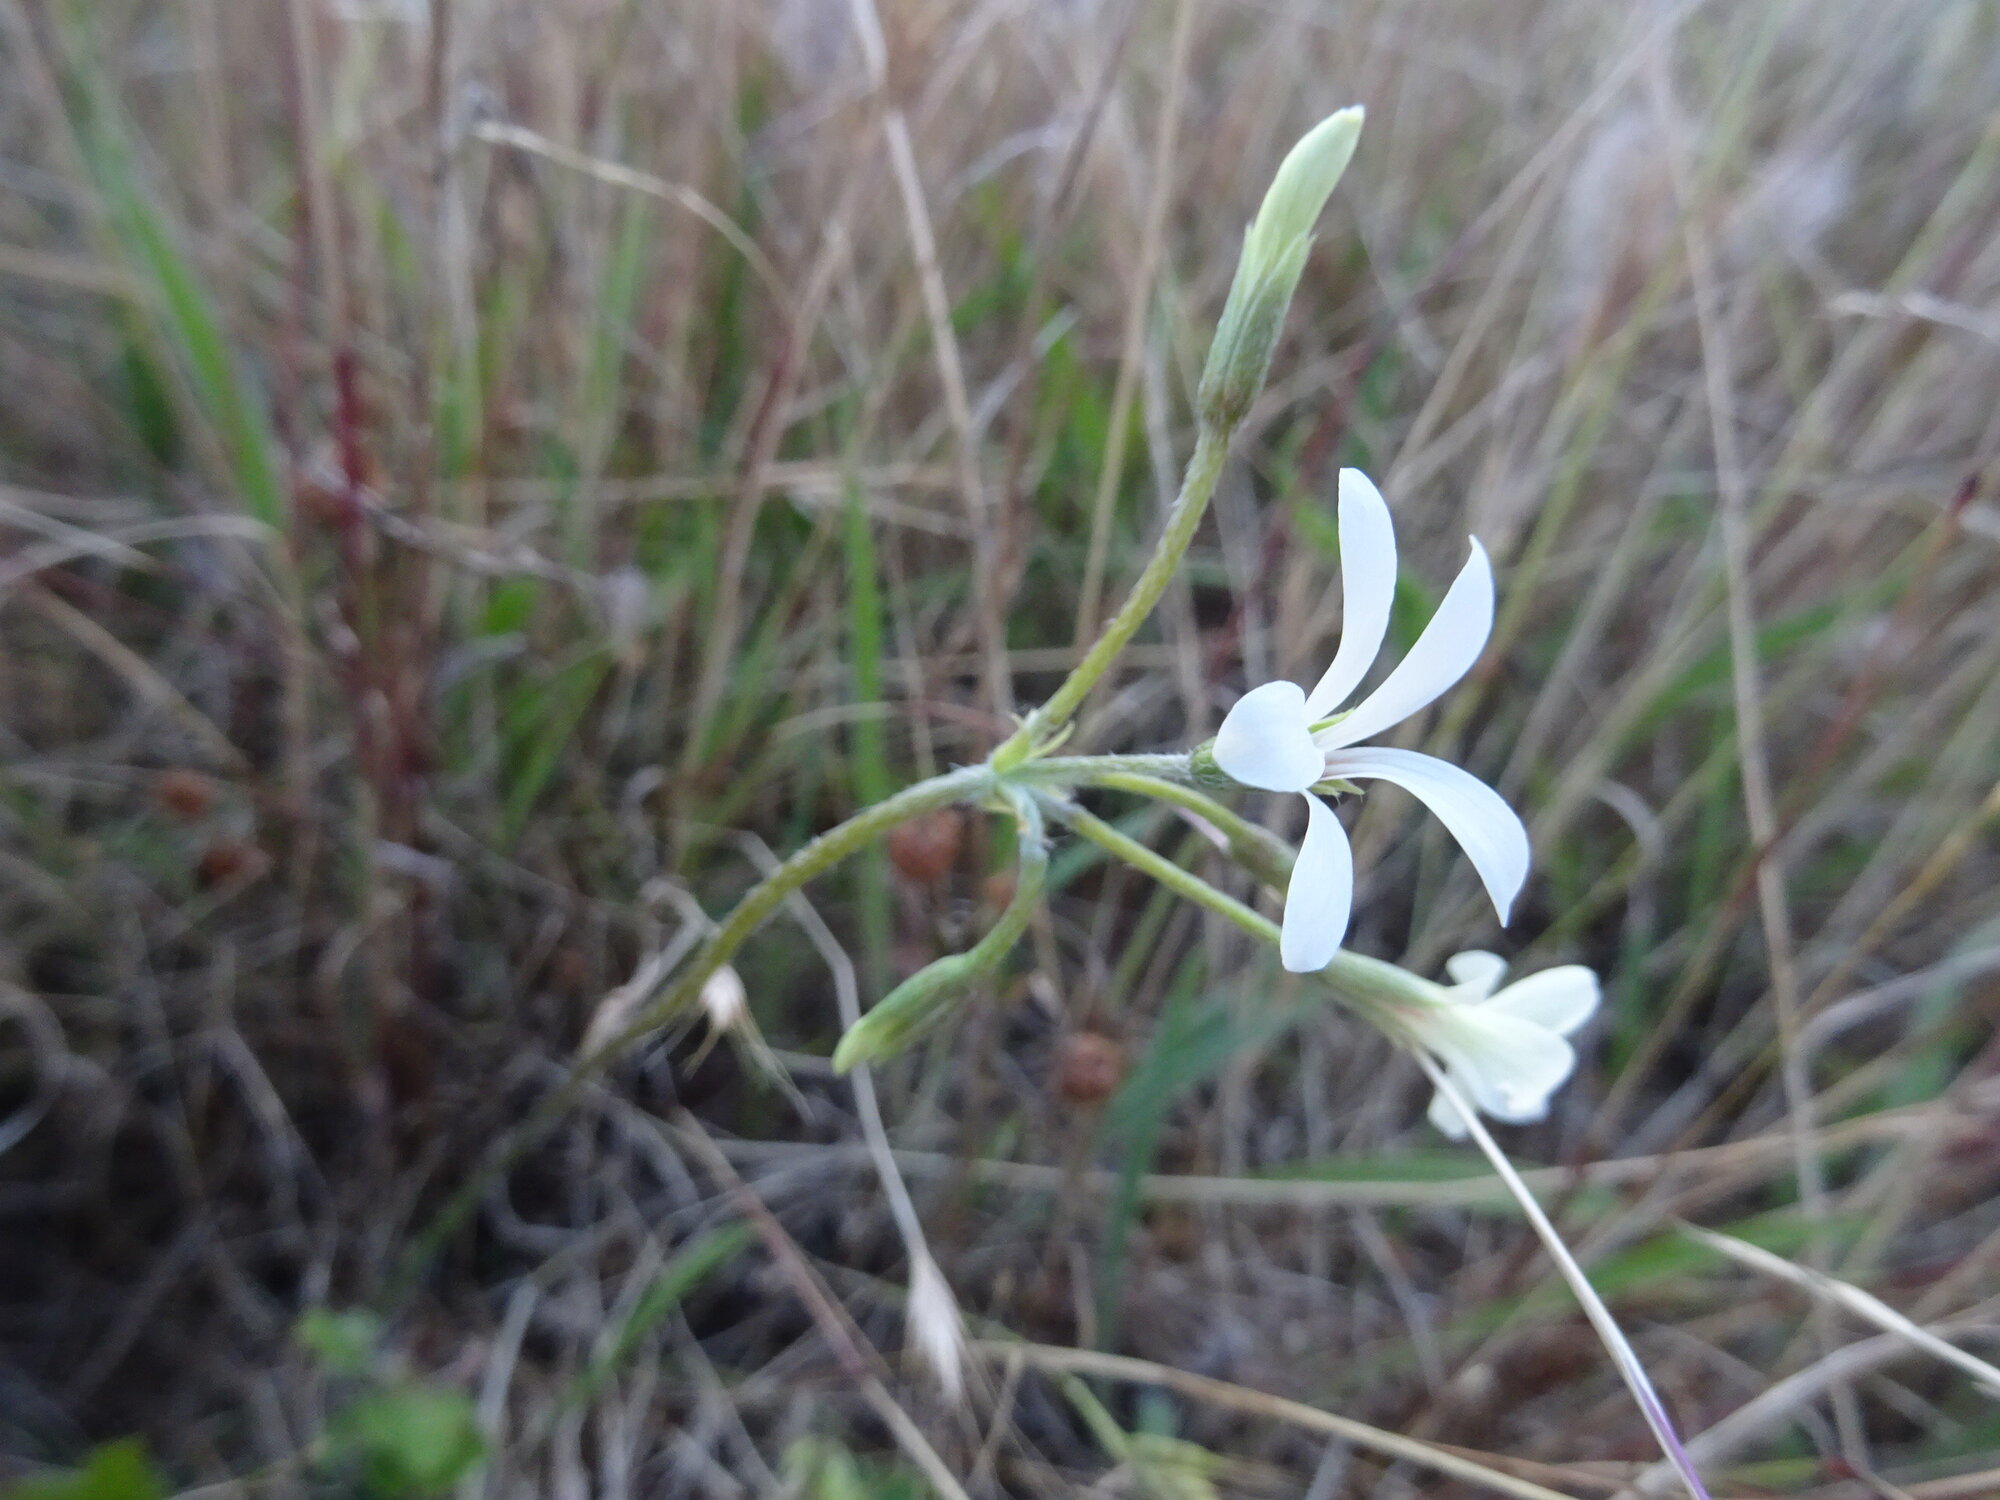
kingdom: Plantae
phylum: Tracheophyta
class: Magnoliopsida
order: Geraniales
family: Geraniaceae
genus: Pelargonium
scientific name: Pelargonium alchemilloides
